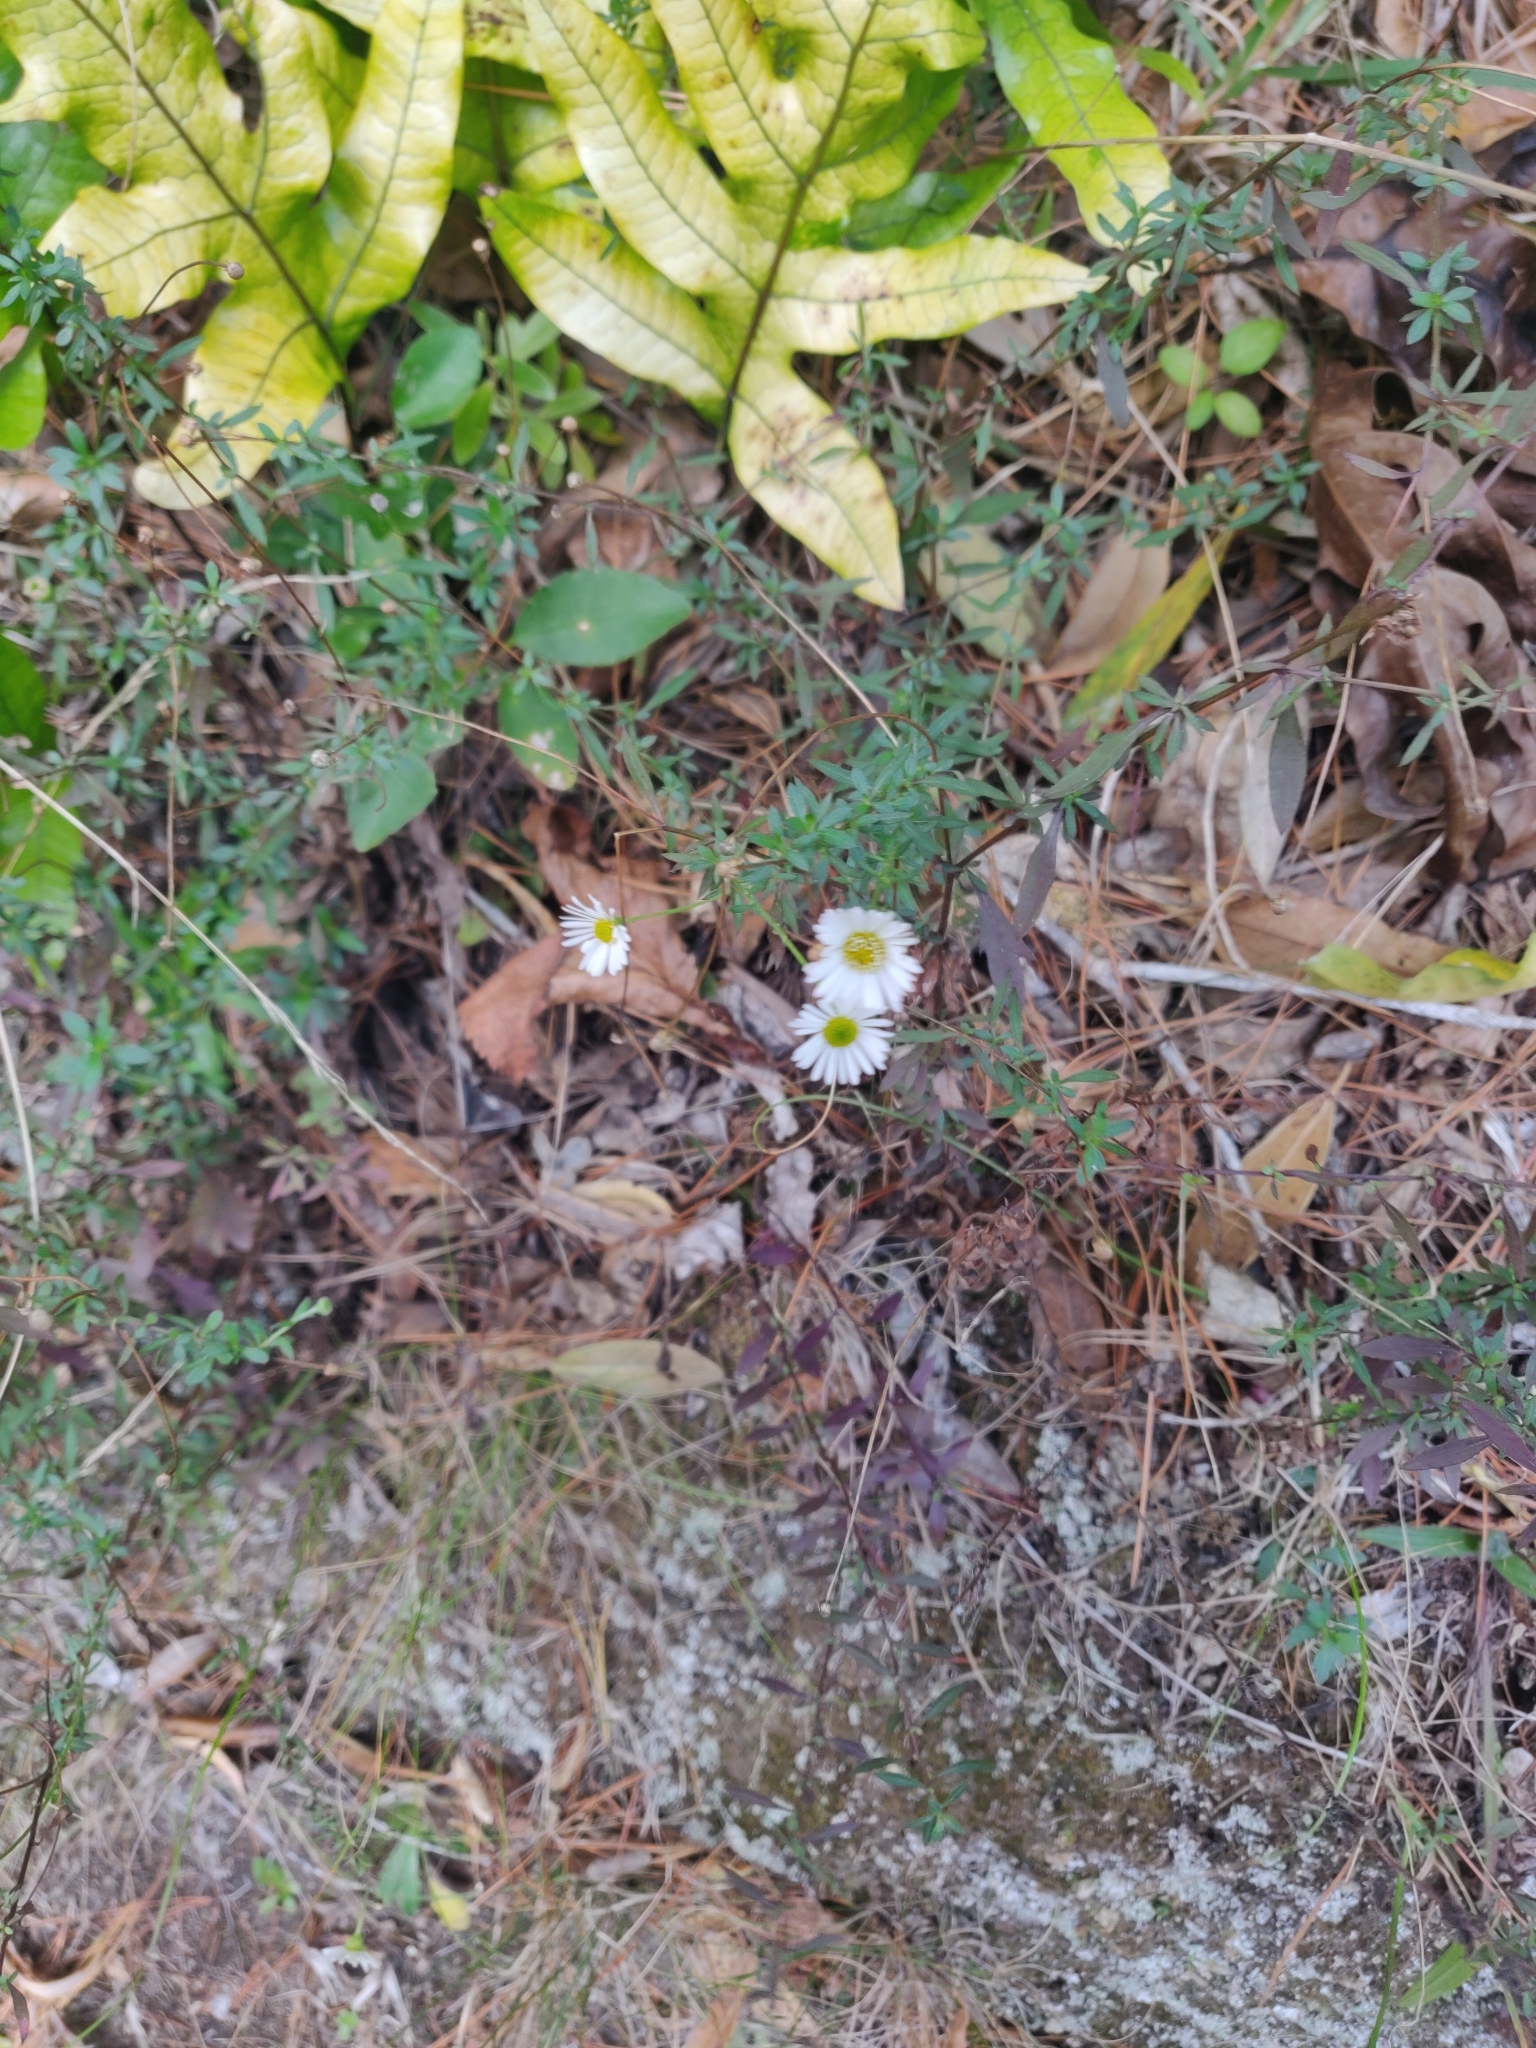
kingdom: Plantae
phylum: Tracheophyta
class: Magnoliopsida
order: Asterales
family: Asteraceae
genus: Erigeron
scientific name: Erigeron karvinskianus
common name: Mexican fleabane
